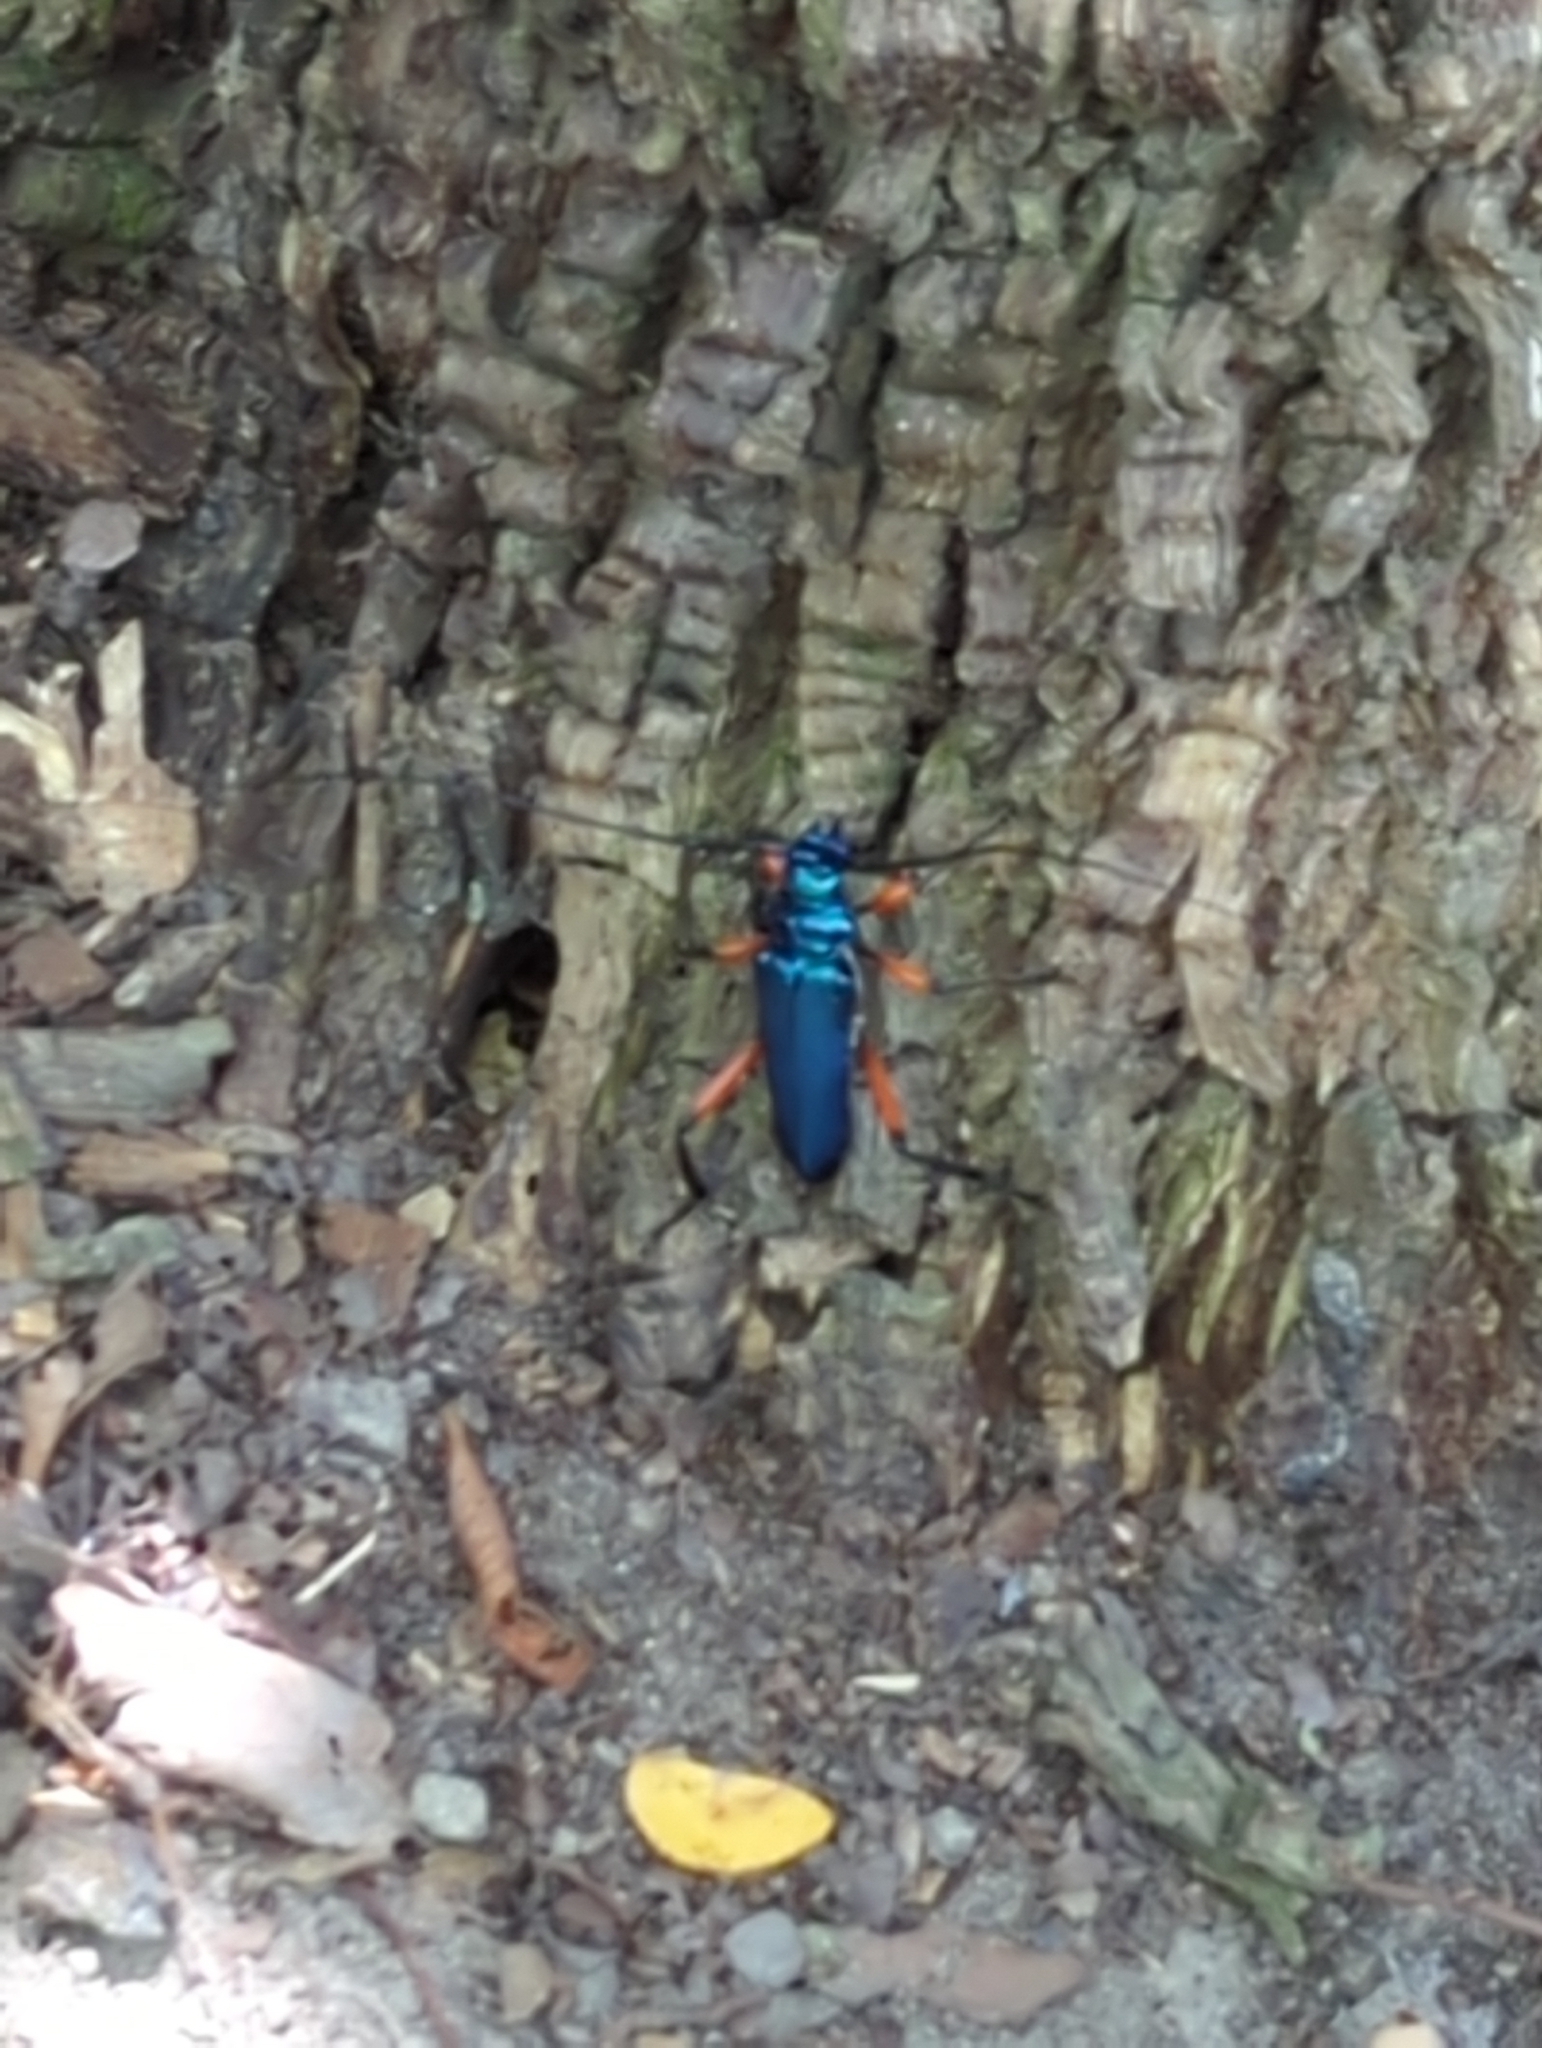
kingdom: Animalia
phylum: Arthropoda
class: Insecta
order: Coleoptera
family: Cerambycidae
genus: Plinthocoelium
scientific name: Plinthocoelium suaveolens
